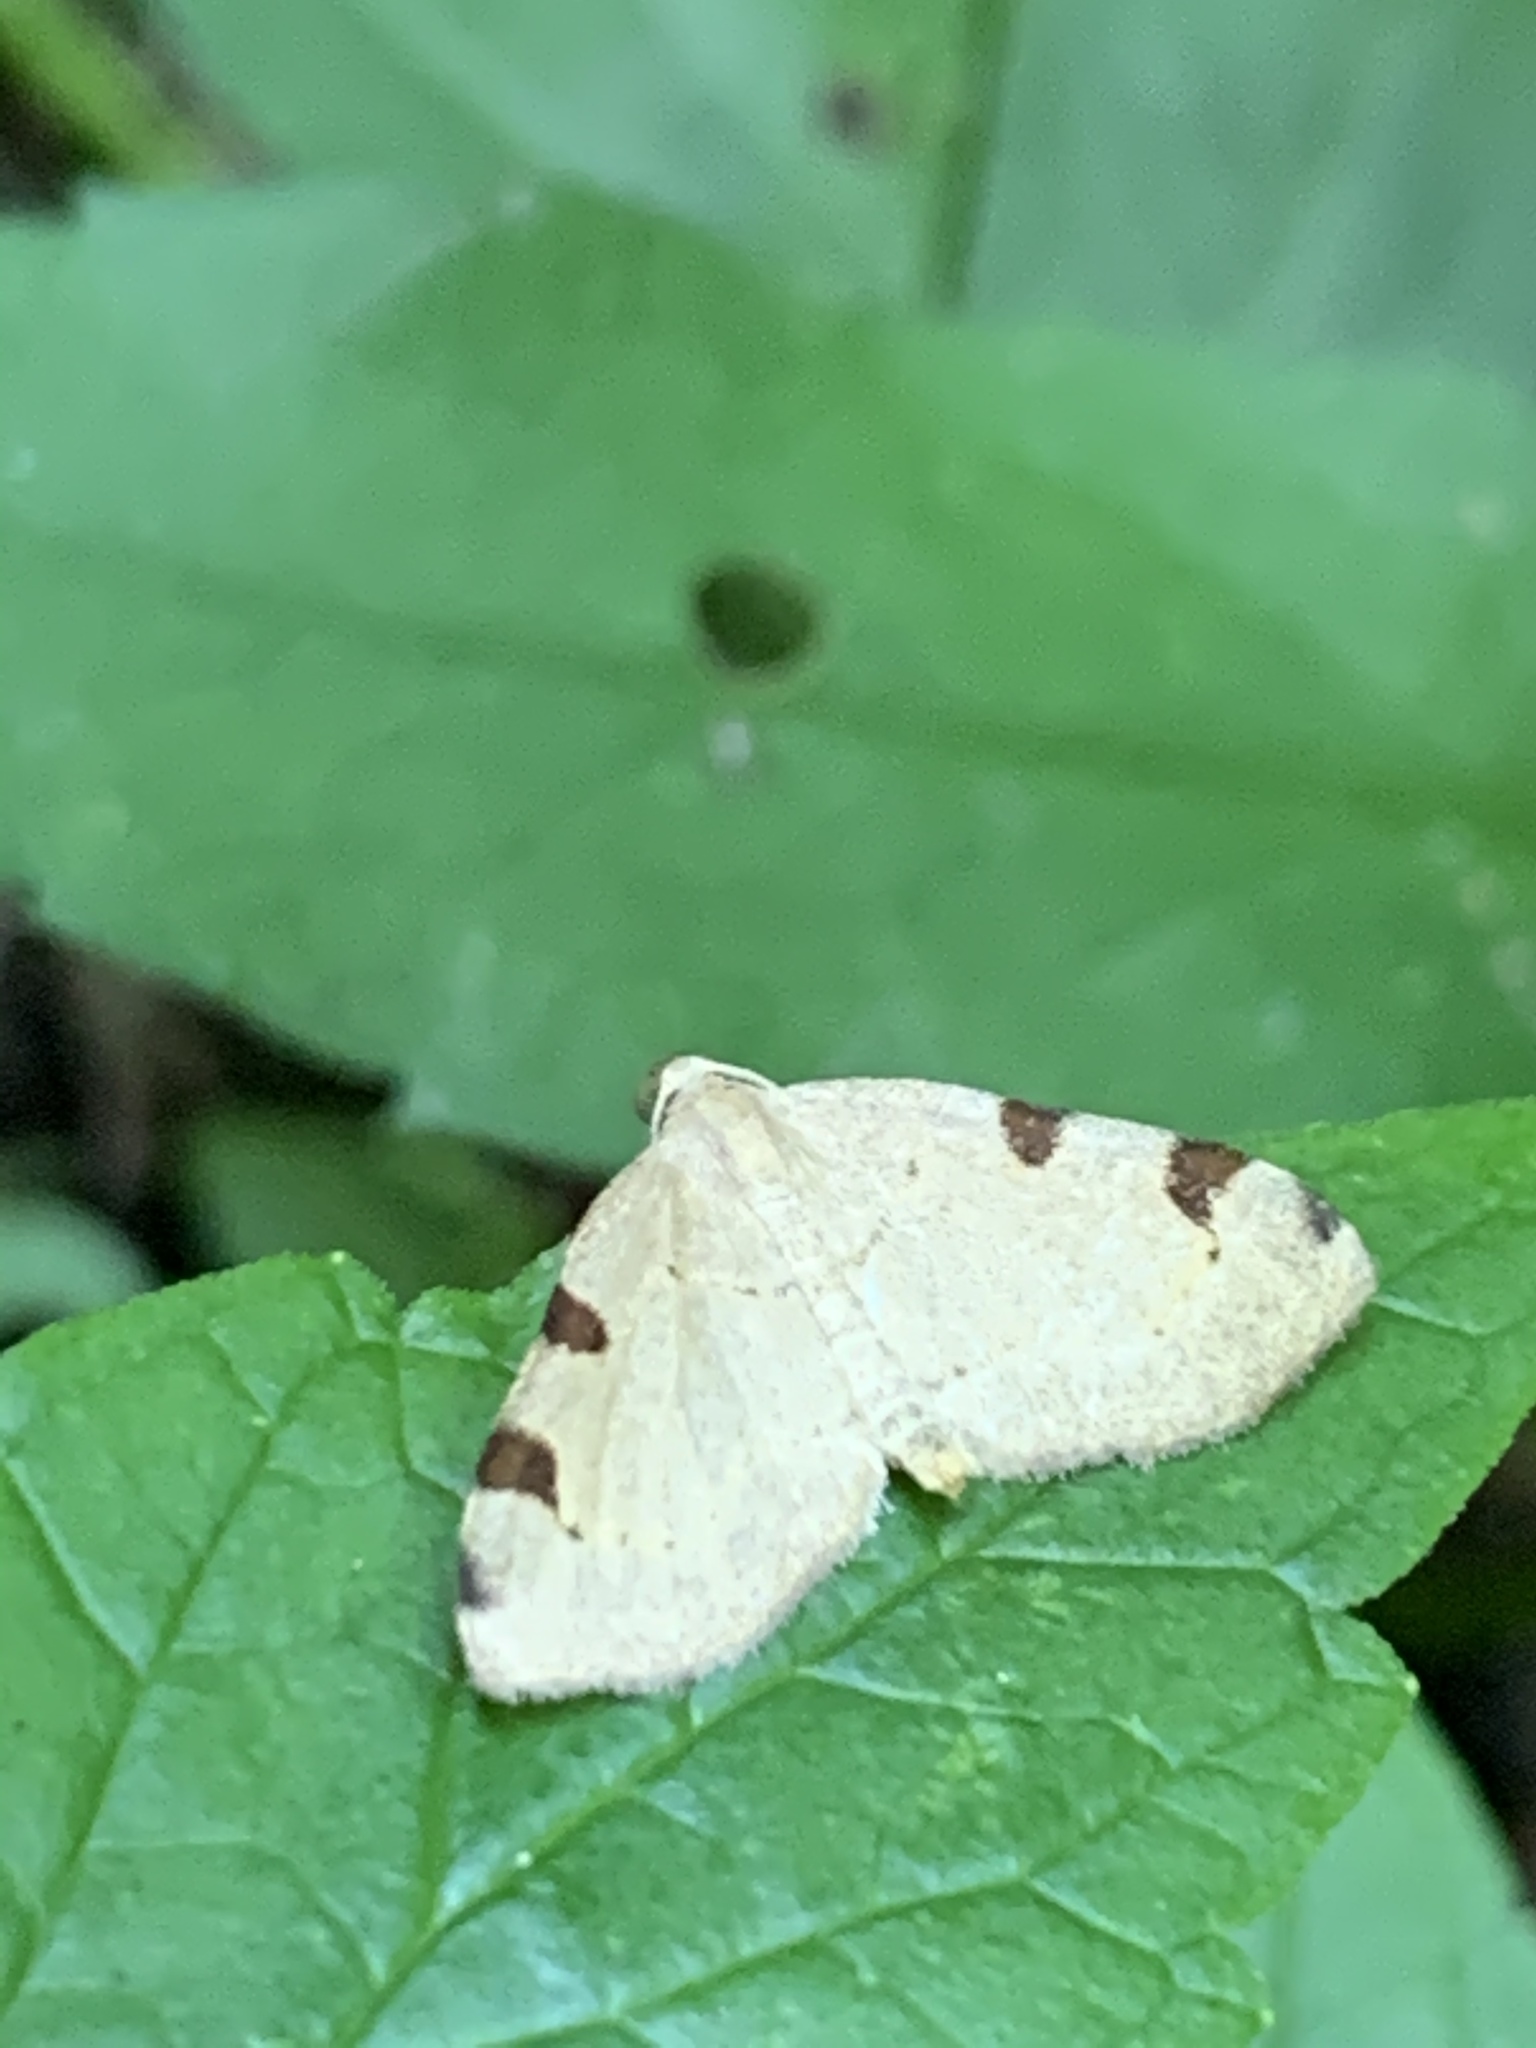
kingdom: Animalia
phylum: Arthropoda
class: Insecta
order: Lepidoptera
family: Geometridae
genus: Heterophleps
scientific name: Heterophleps triguttaria
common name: Three-spotted fillip
